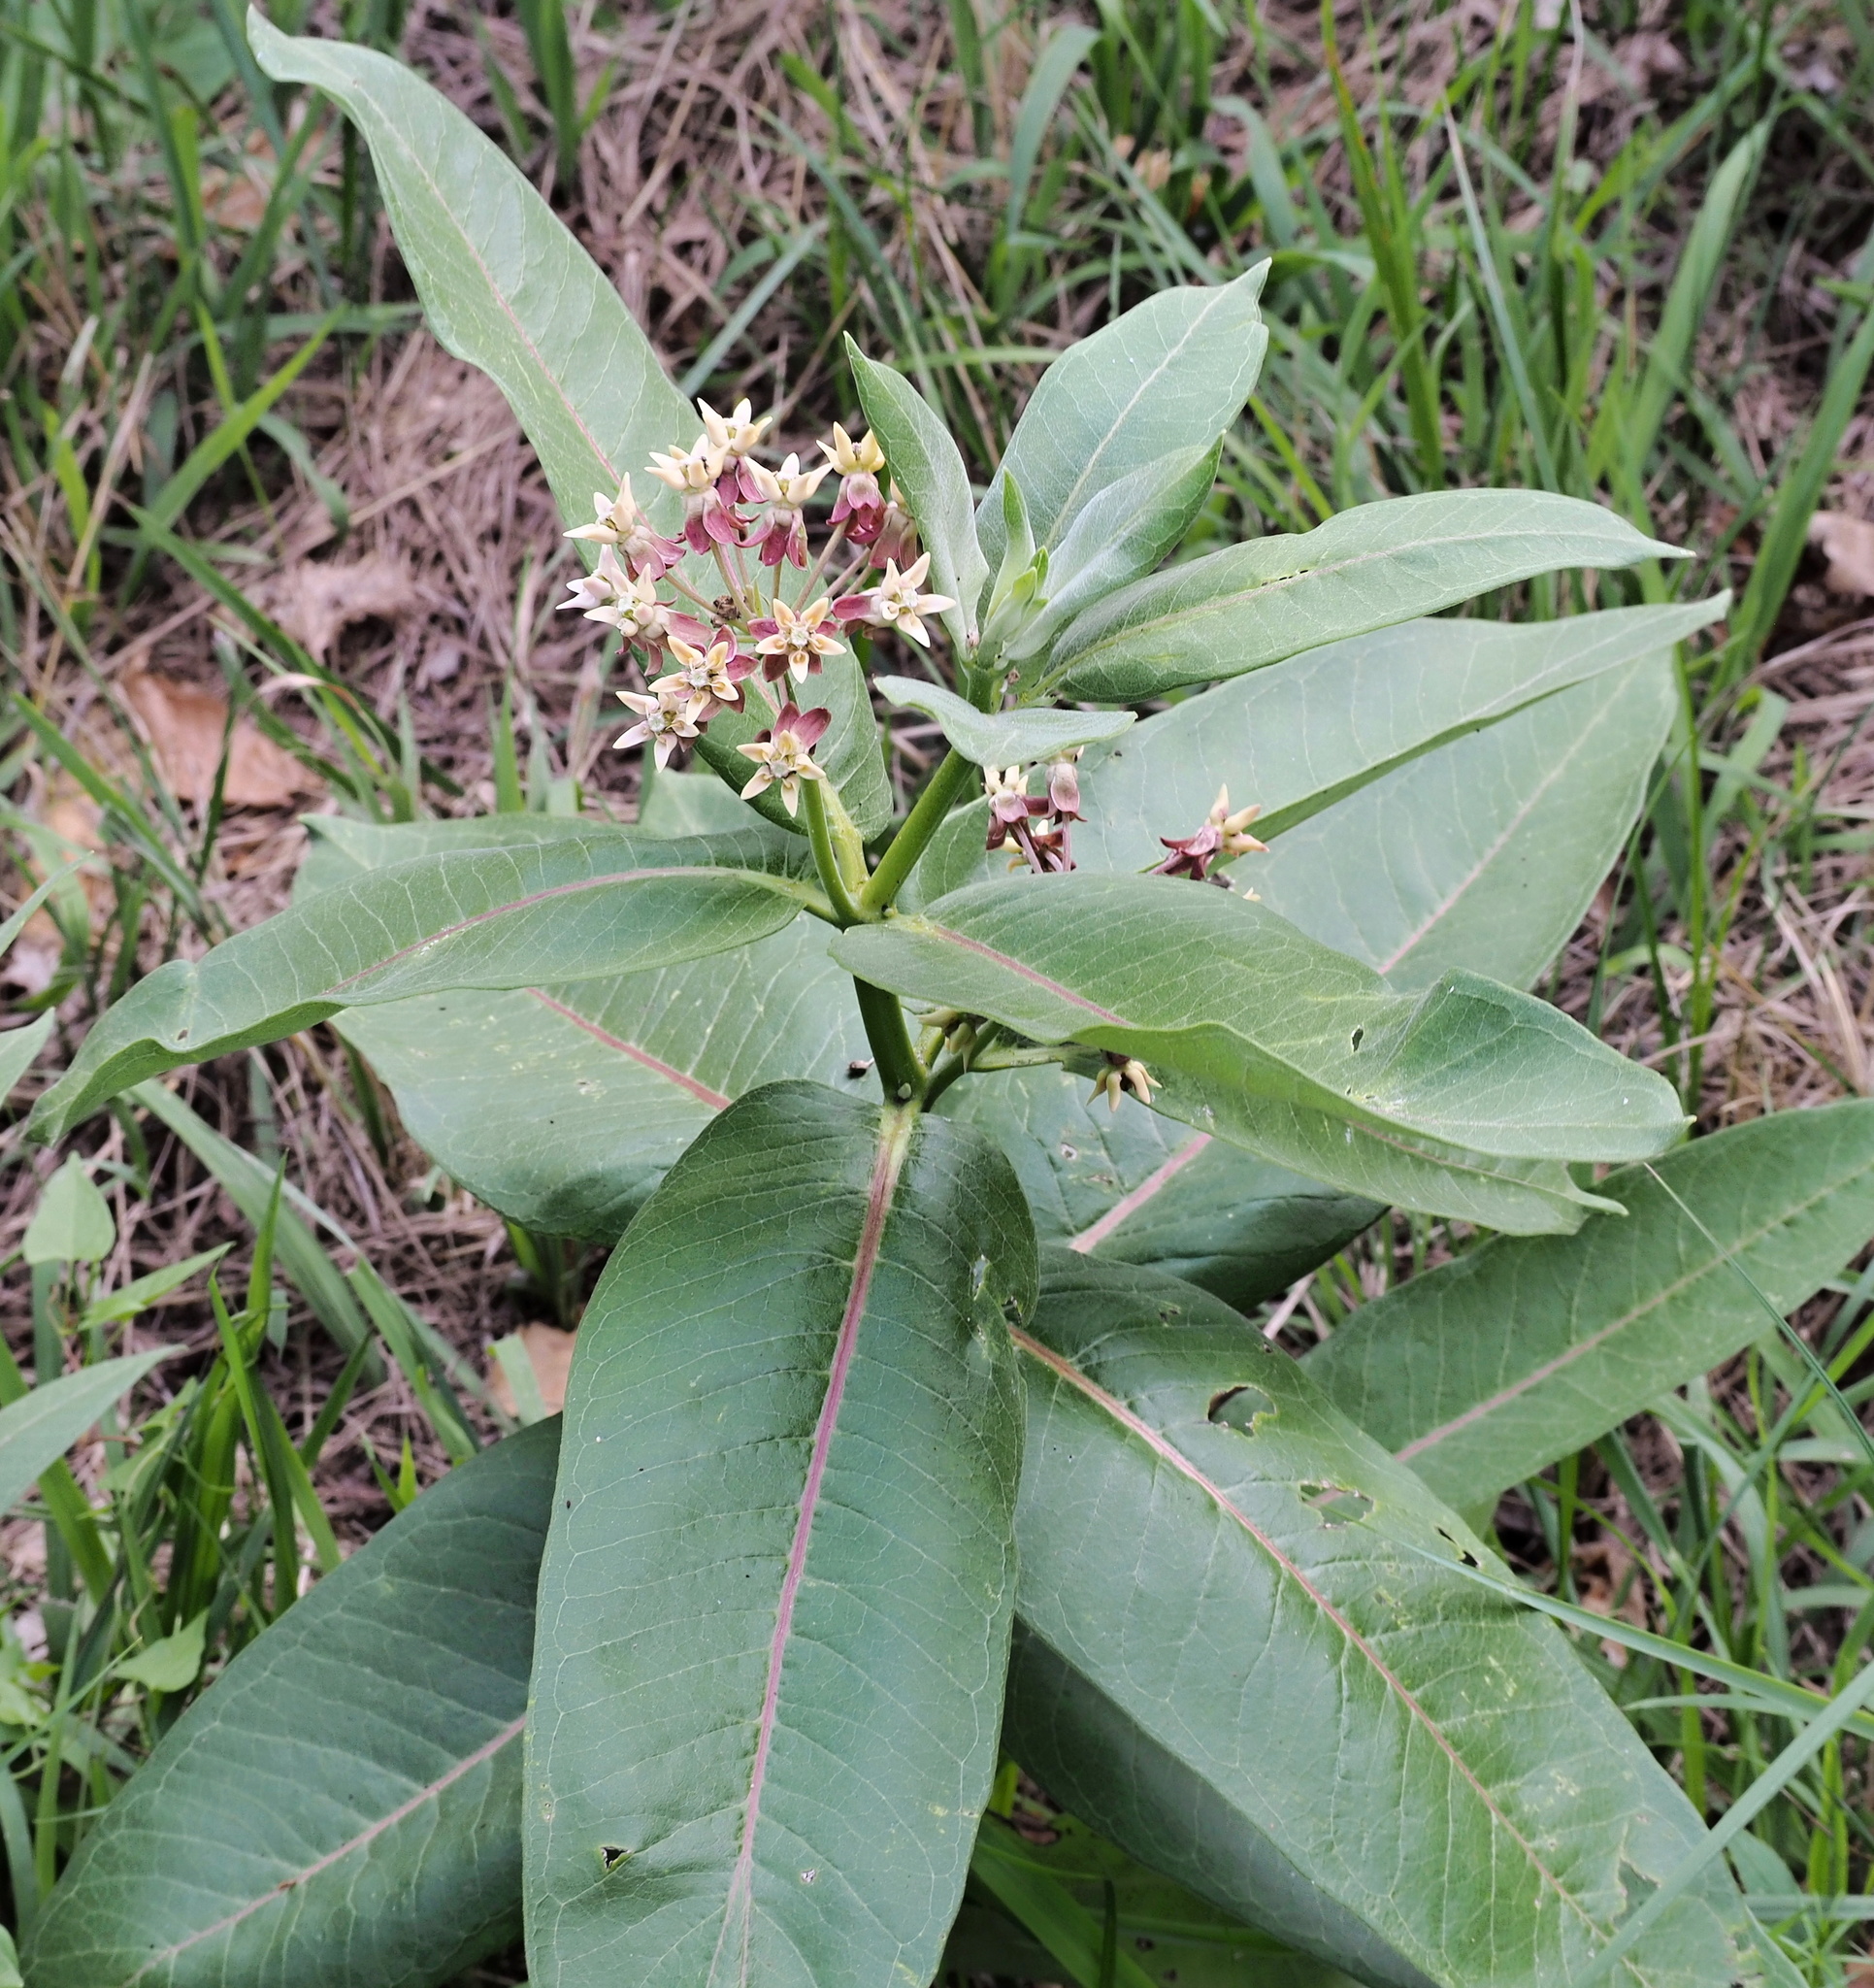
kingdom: Plantae
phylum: Tracheophyta
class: Magnoliopsida
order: Gentianales
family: Apocynaceae
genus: Asclepias
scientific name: Asclepias syriaca
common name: Common milkweed
